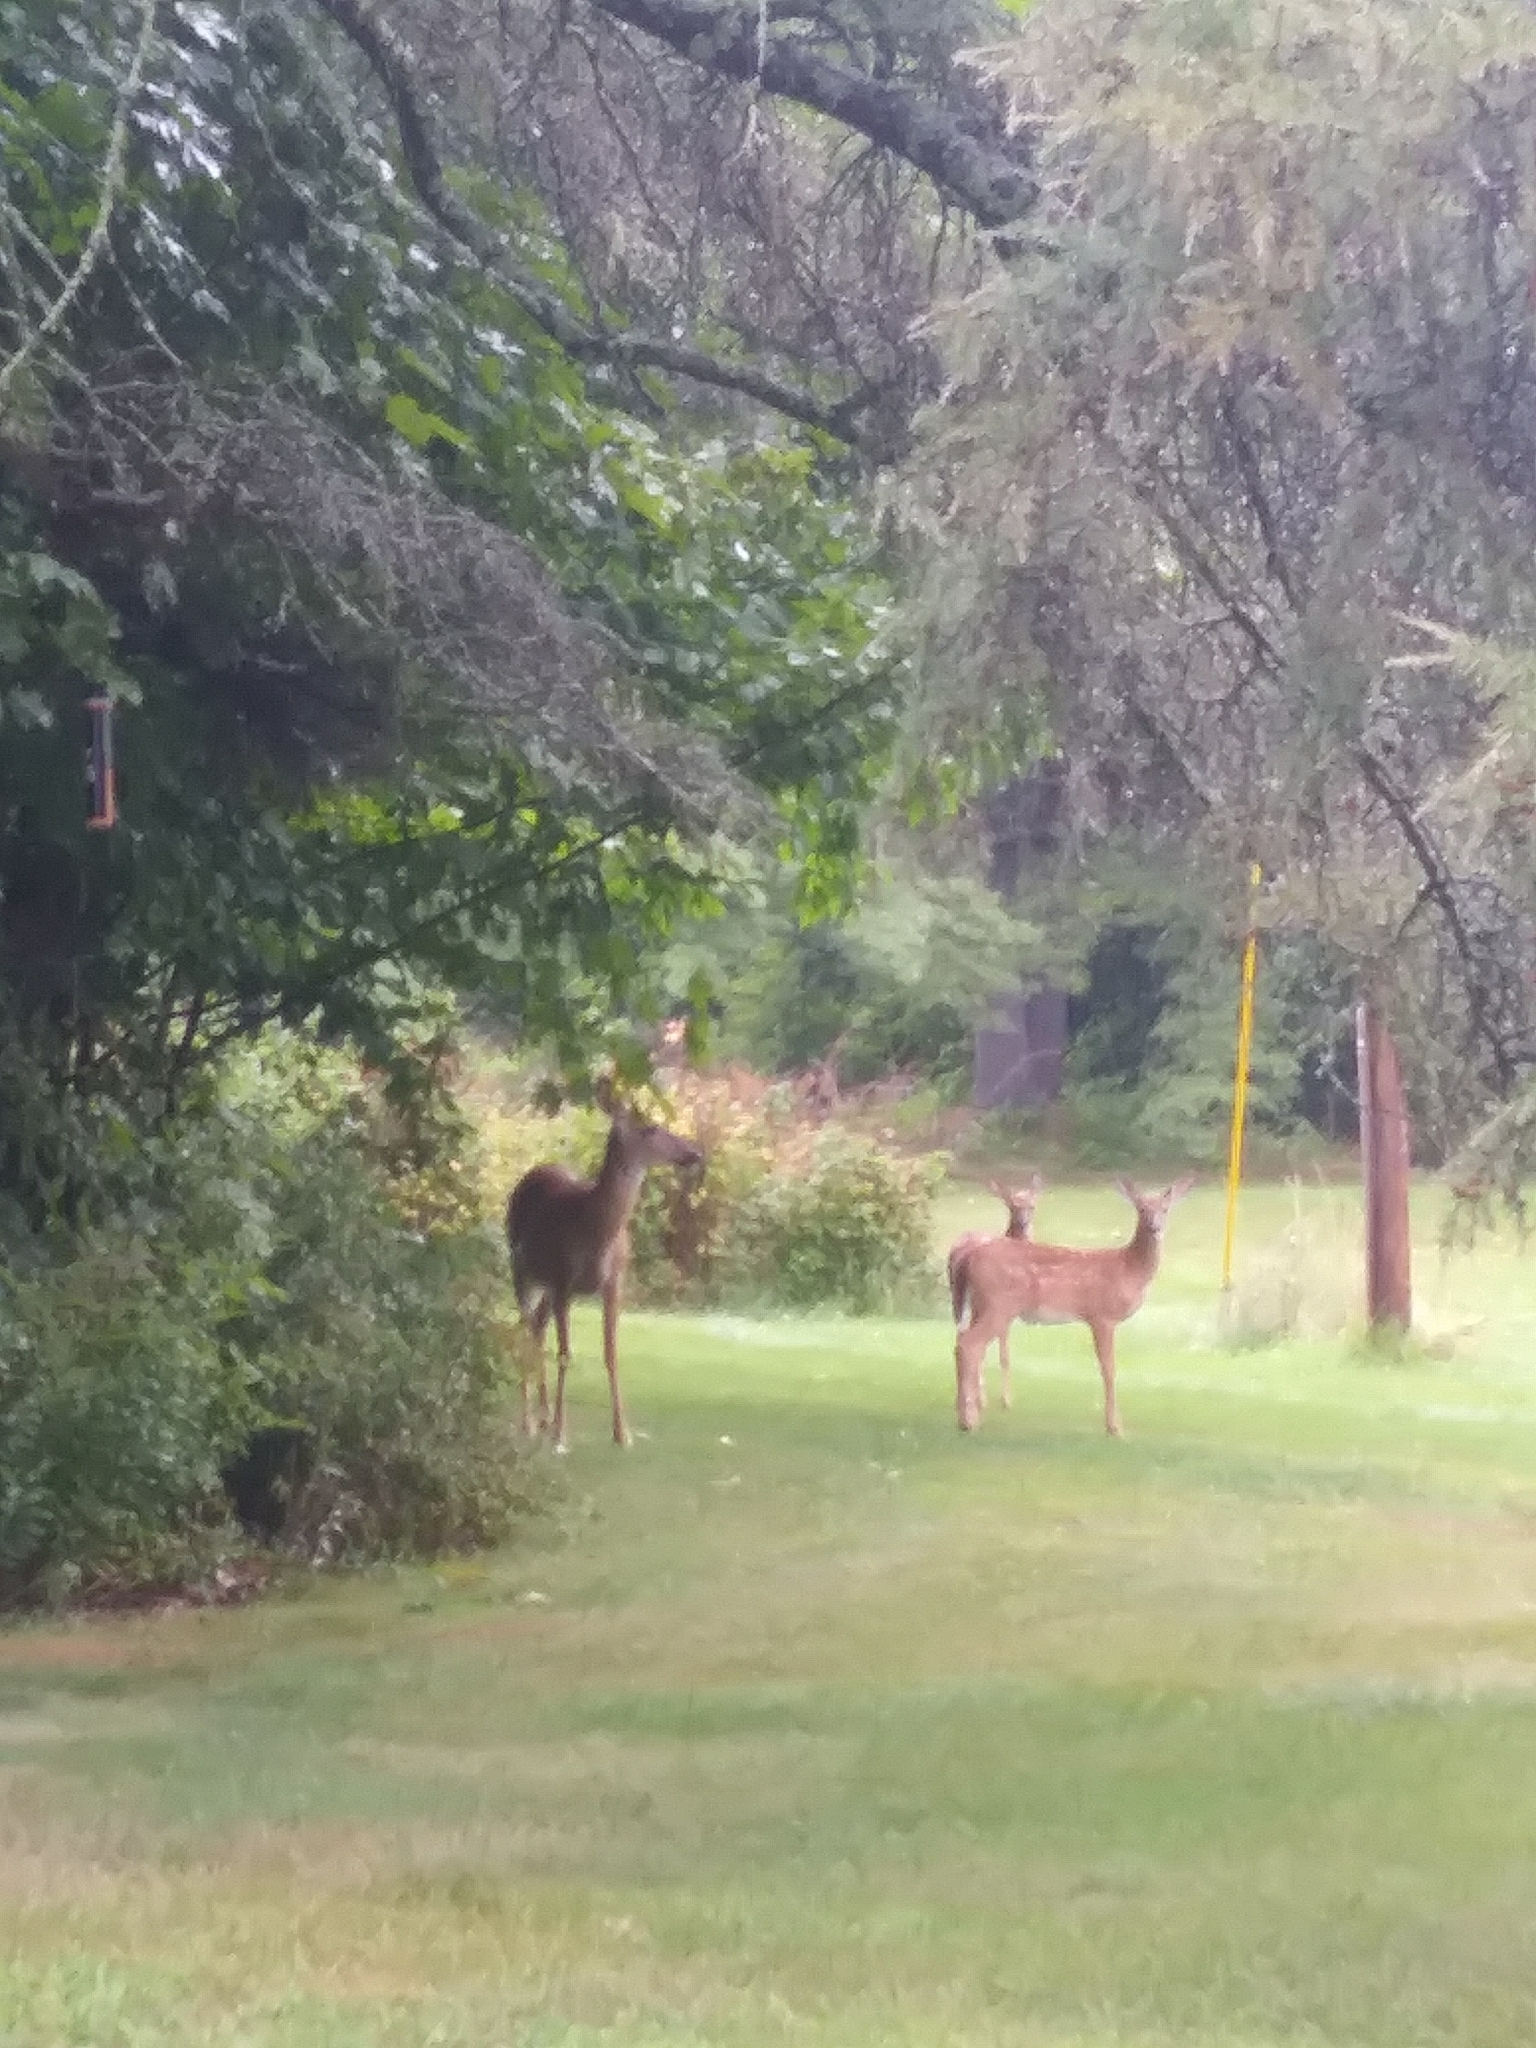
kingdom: Animalia
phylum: Chordata
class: Mammalia
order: Artiodactyla
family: Cervidae
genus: Odocoileus
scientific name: Odocoileus virginianus
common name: White-tailed deer
